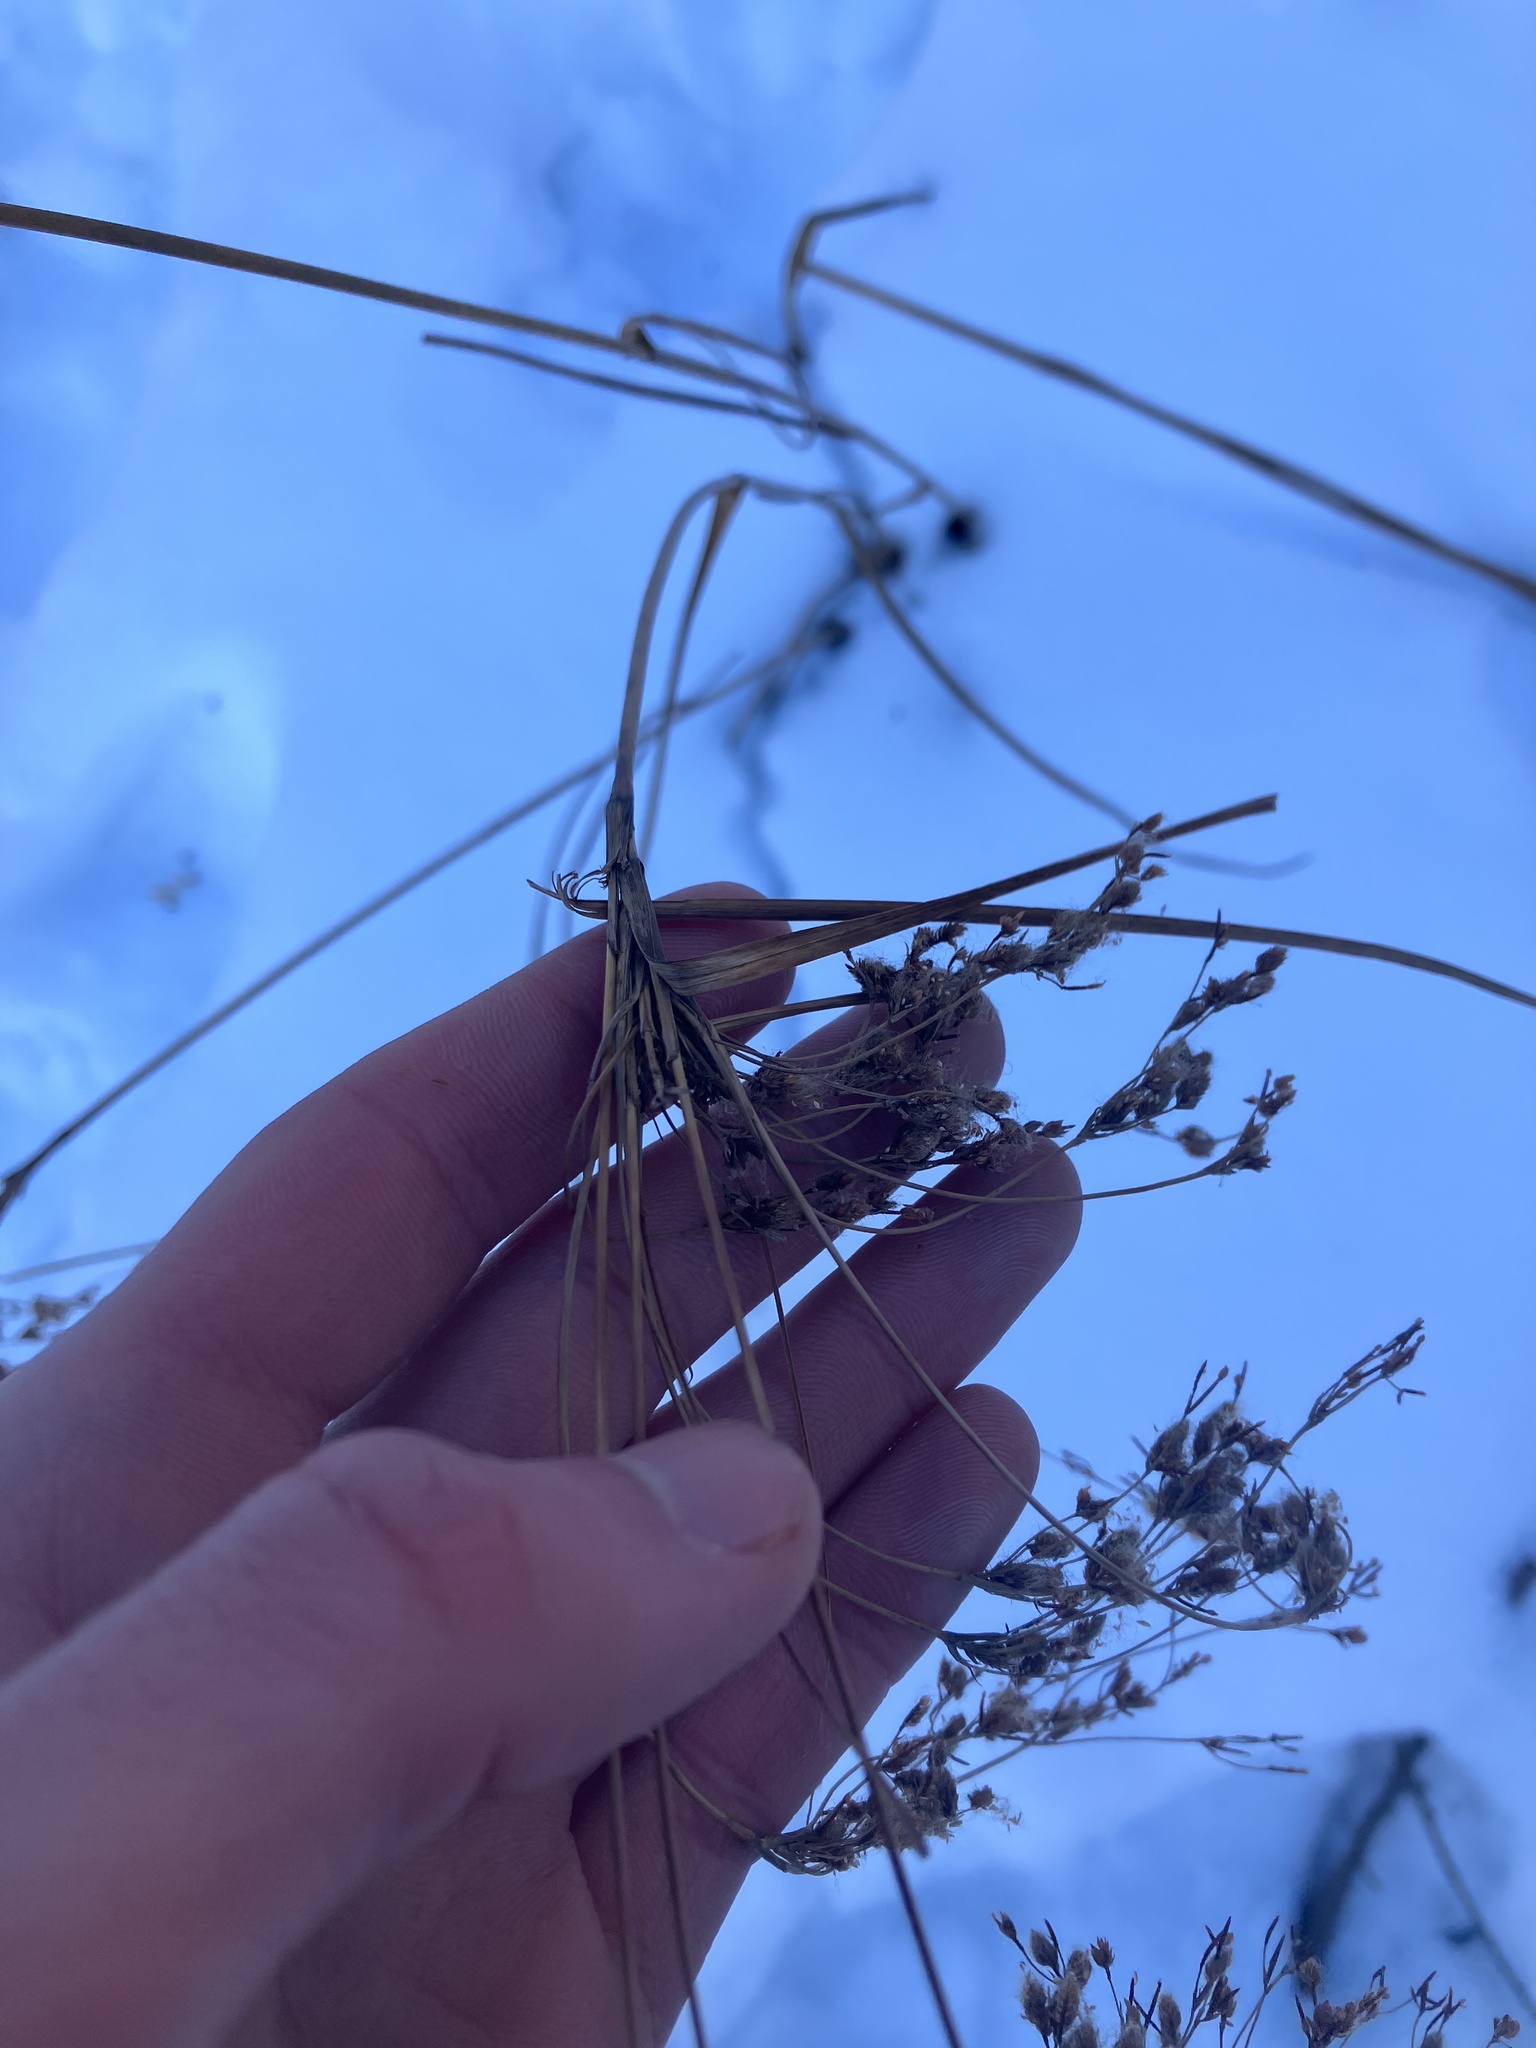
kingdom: Plantae
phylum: Tracheophyta
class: Liliopsida
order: Poales
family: Cyperaceae
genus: Scirpus
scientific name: Scirpus cyperinus
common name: Black-sheathed bulrush
